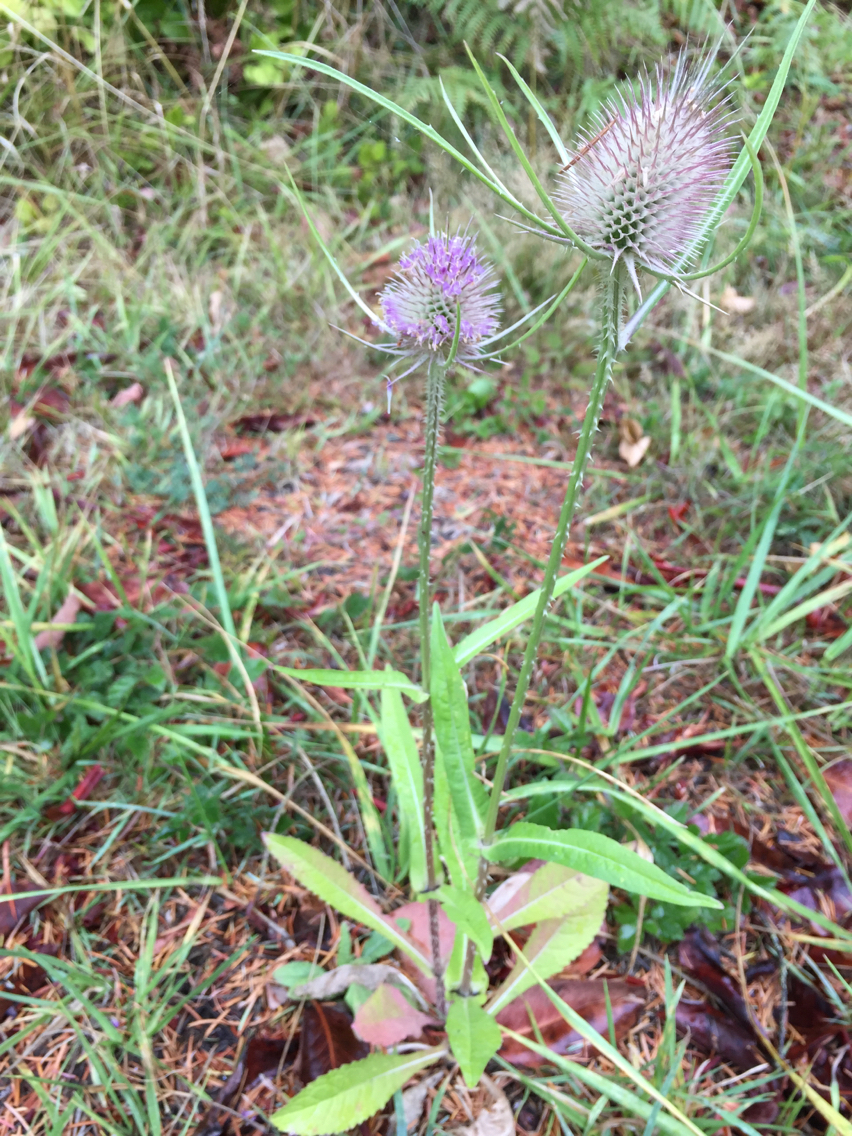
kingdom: Plantae
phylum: Tracheophyta
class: Magnoliopsida
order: Dipsacales
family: Caprifoliaceae
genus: Dipsacus
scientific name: Dipsacus fullonum
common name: Teasel
